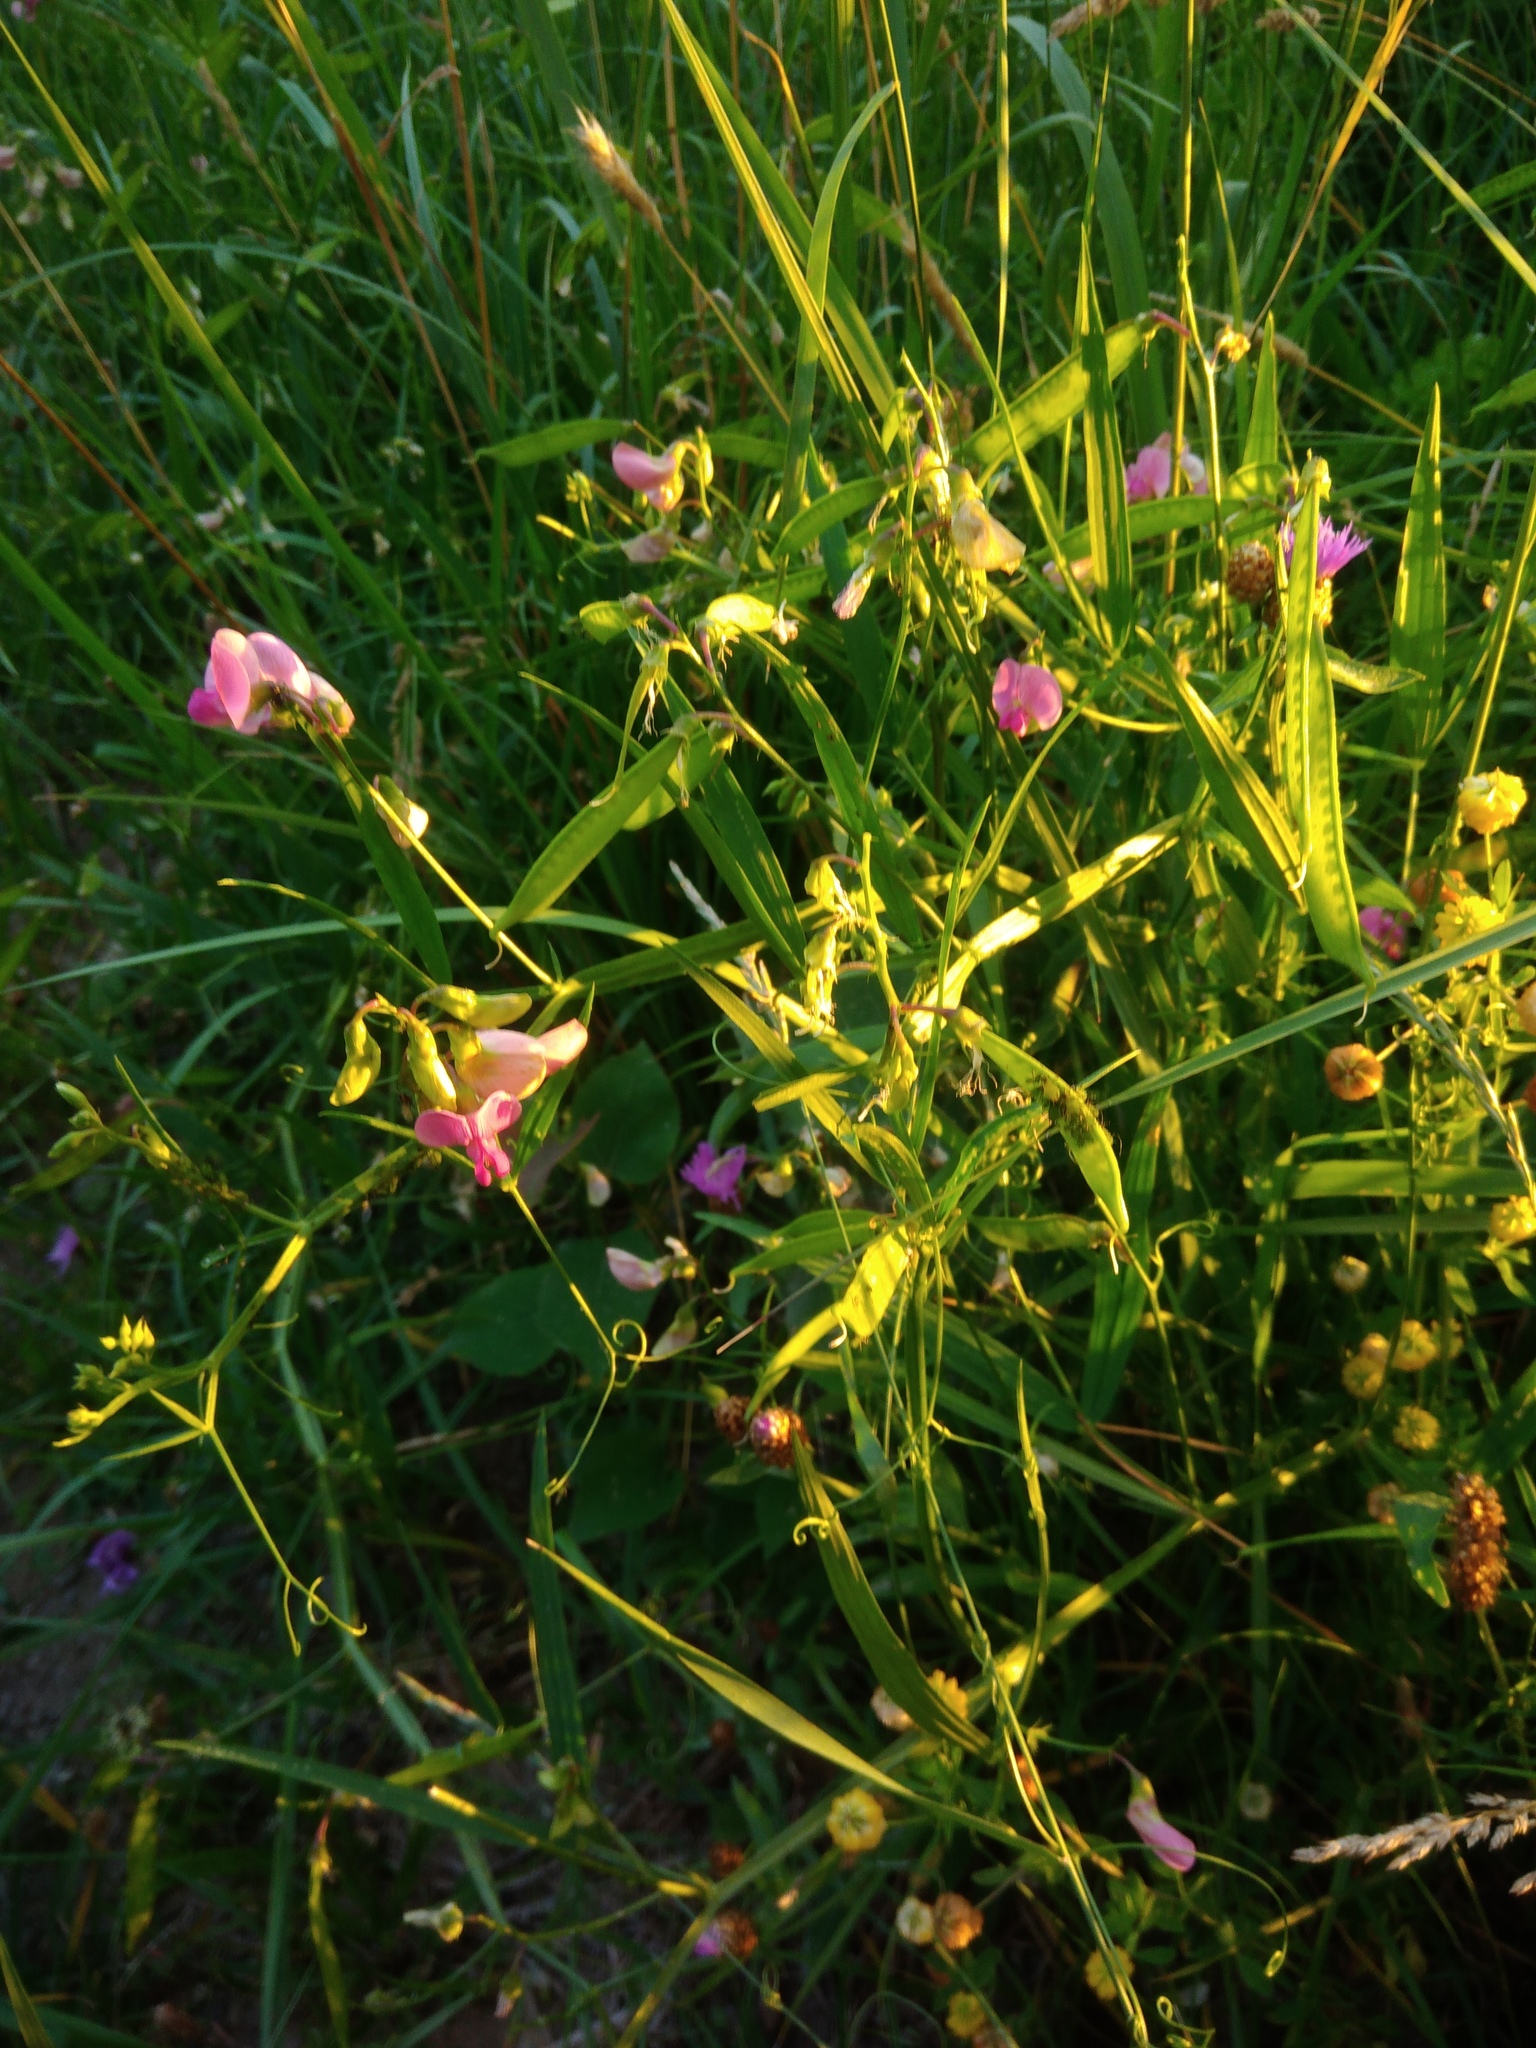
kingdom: Plantae
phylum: Tracheophyta
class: Magnoliopsida
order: Fabales
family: Fabaceae
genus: Lathyrus
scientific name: Lathyrus sylvestris
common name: Flat pea
